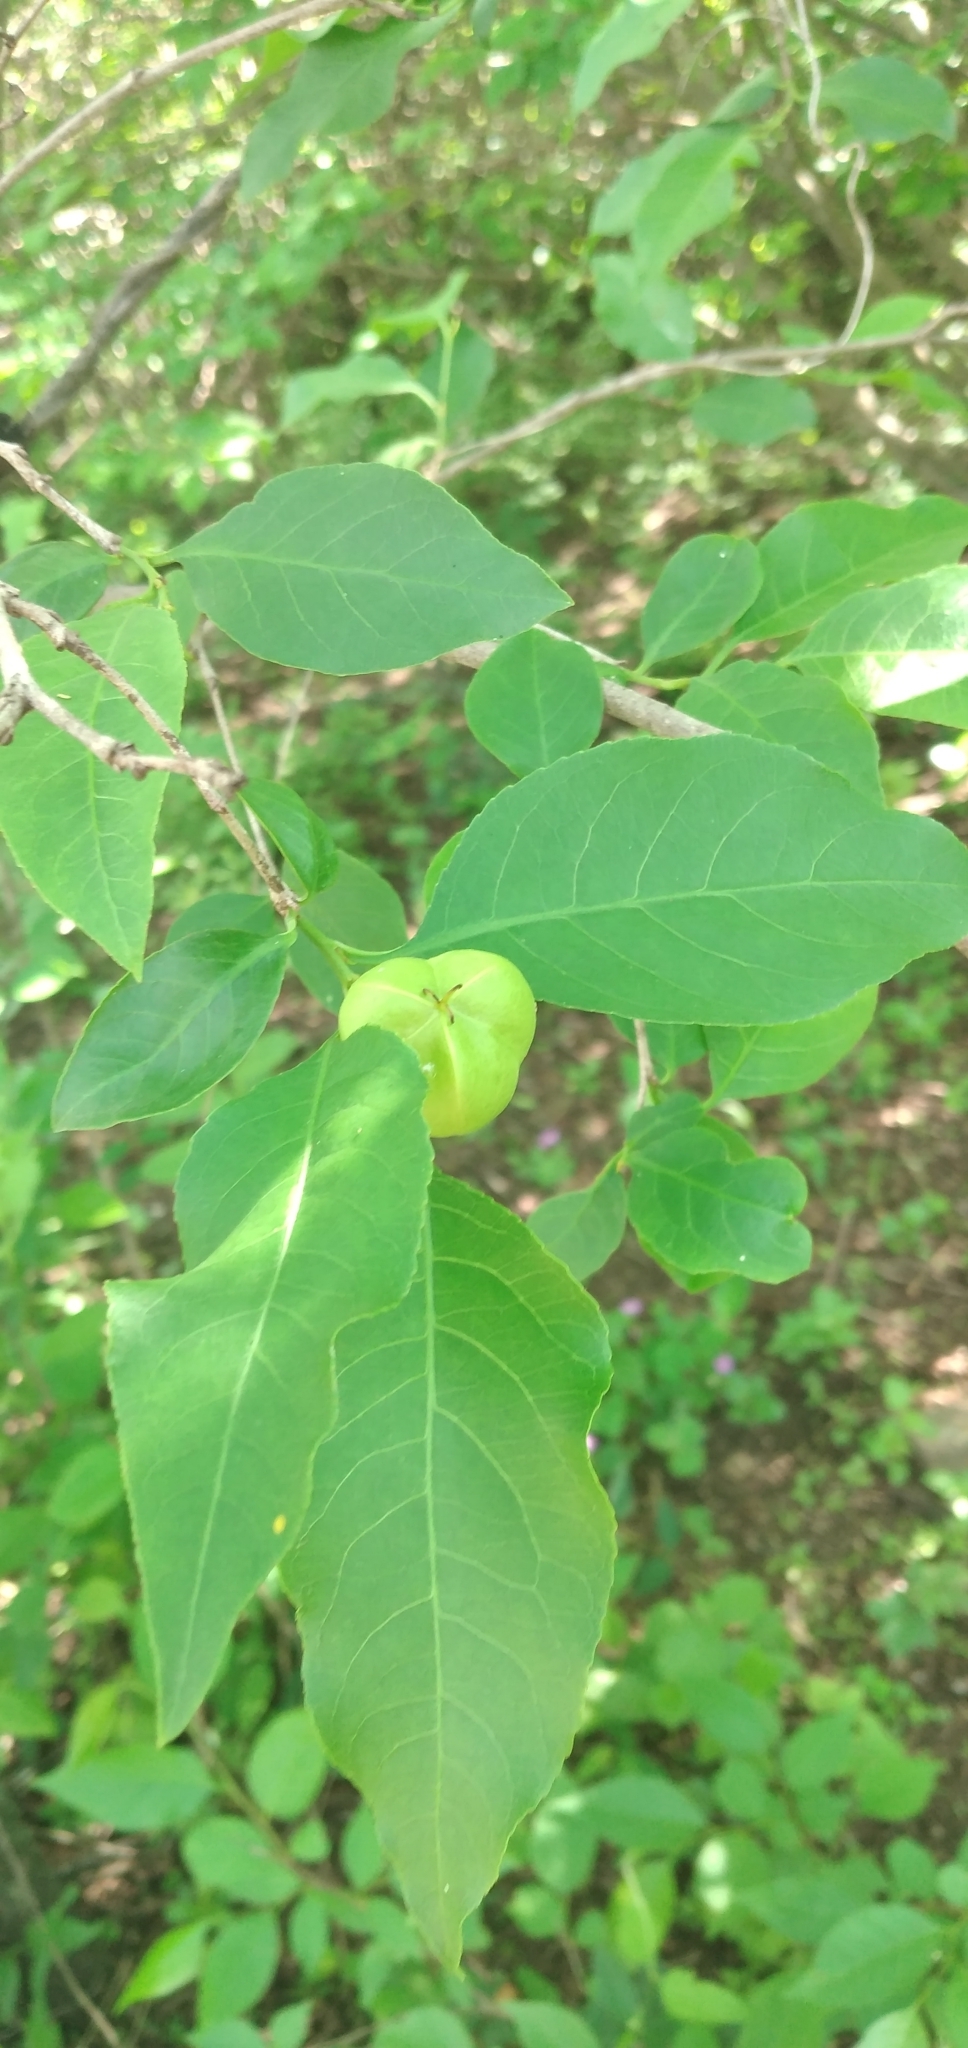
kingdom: Plantae
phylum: Tracheophyta
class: Magnoliopsida
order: Malpighiales
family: Euphorbiaceae
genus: Sebastiania
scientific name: Sebastiania brasiliensis
